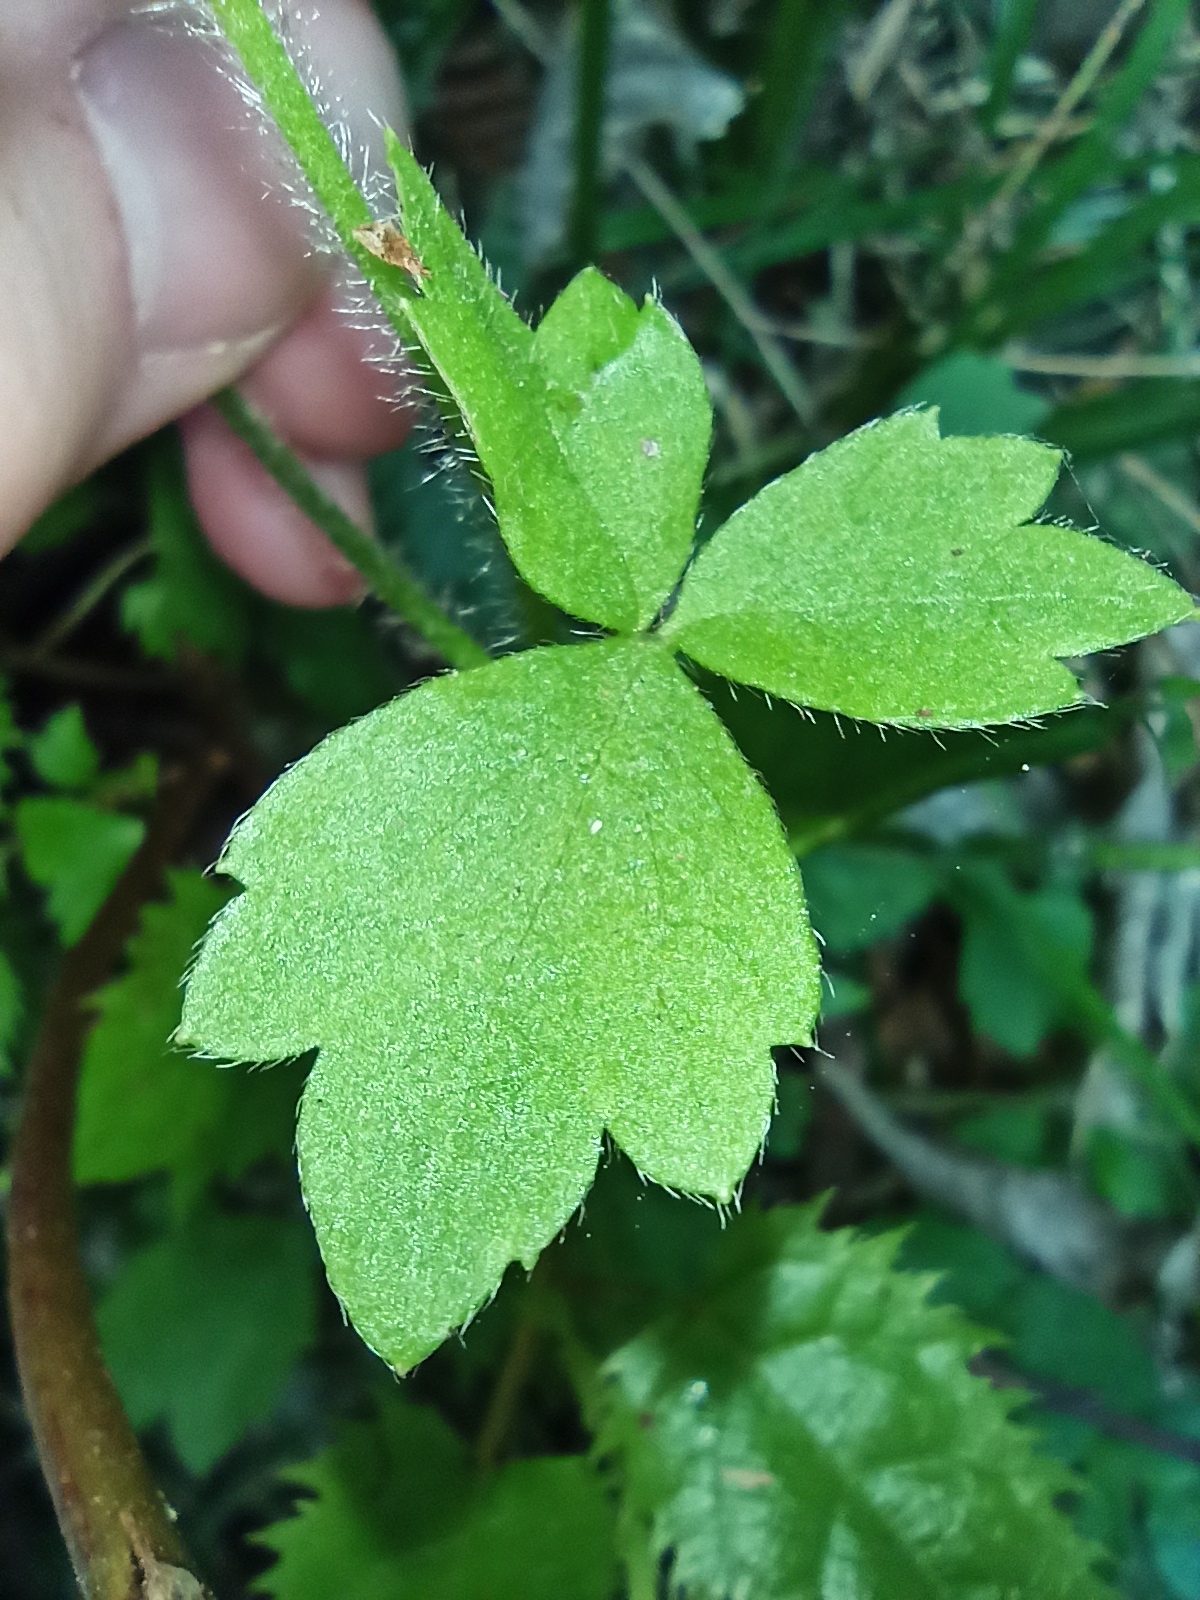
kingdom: Plantae
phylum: Tracheophyta
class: Magnoliopsida
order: Ranunculales
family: Ranunculaceae
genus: Ranunculus
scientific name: Ranunculus reflexus
